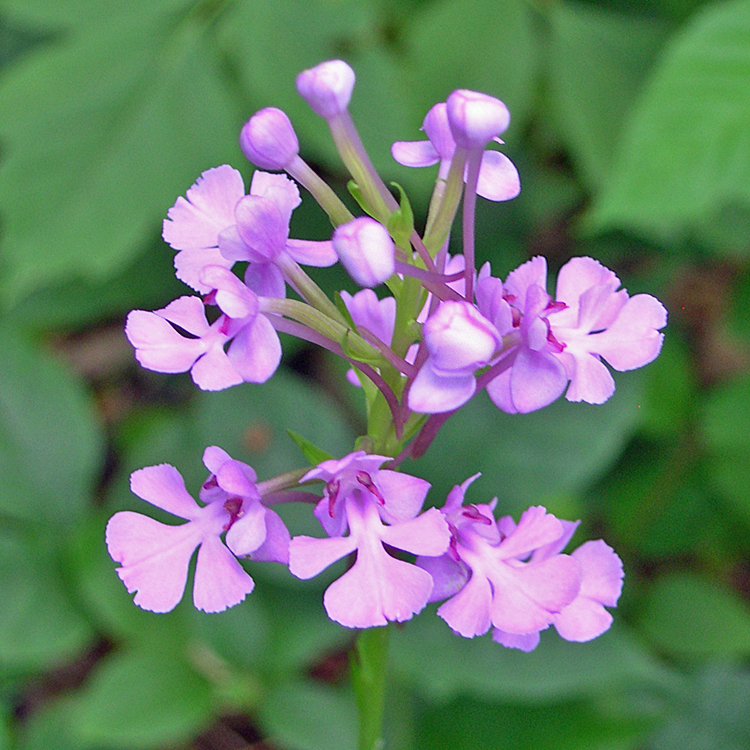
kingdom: Plantae
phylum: Tracheophyta
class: Liliopsida
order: Asparagales
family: Orchidaceae
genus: Platanthera
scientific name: Platanthera peramoena
